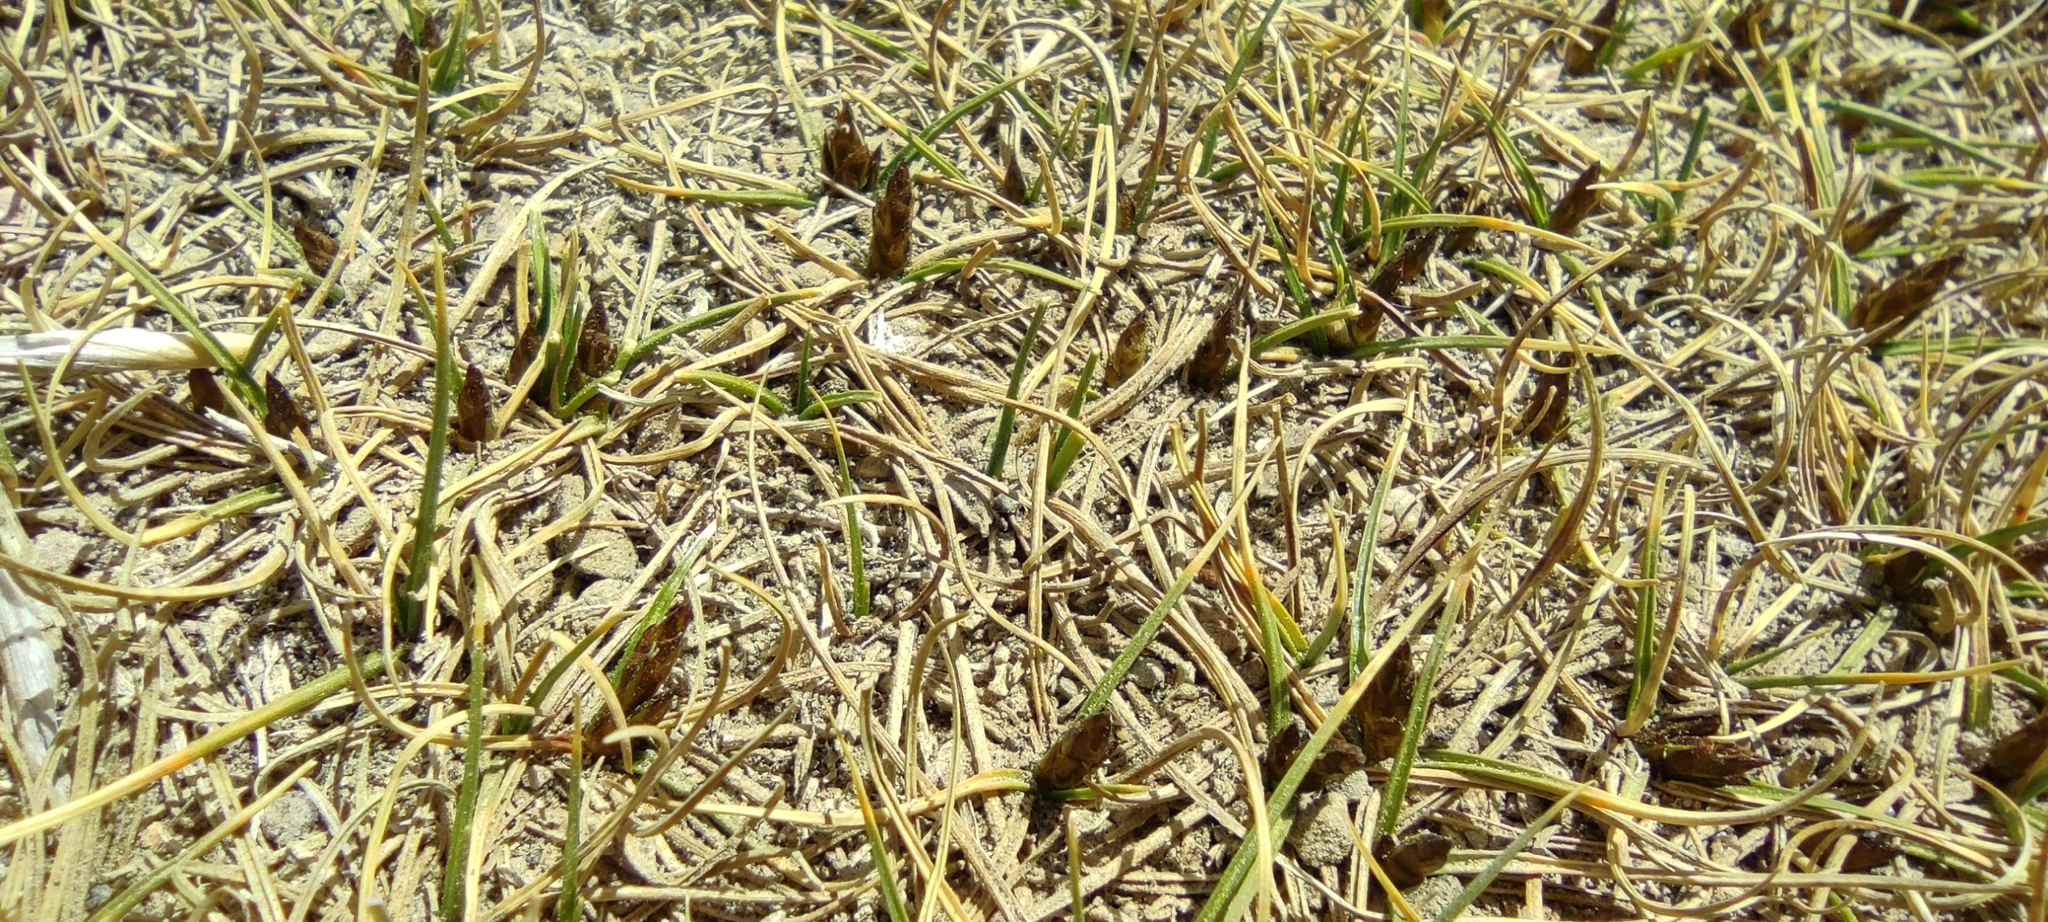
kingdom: Plantae
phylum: Tracheophyta
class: Liliopsida
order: Poales
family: Cyperaceae
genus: Carex
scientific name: Carex humahuacaensis
